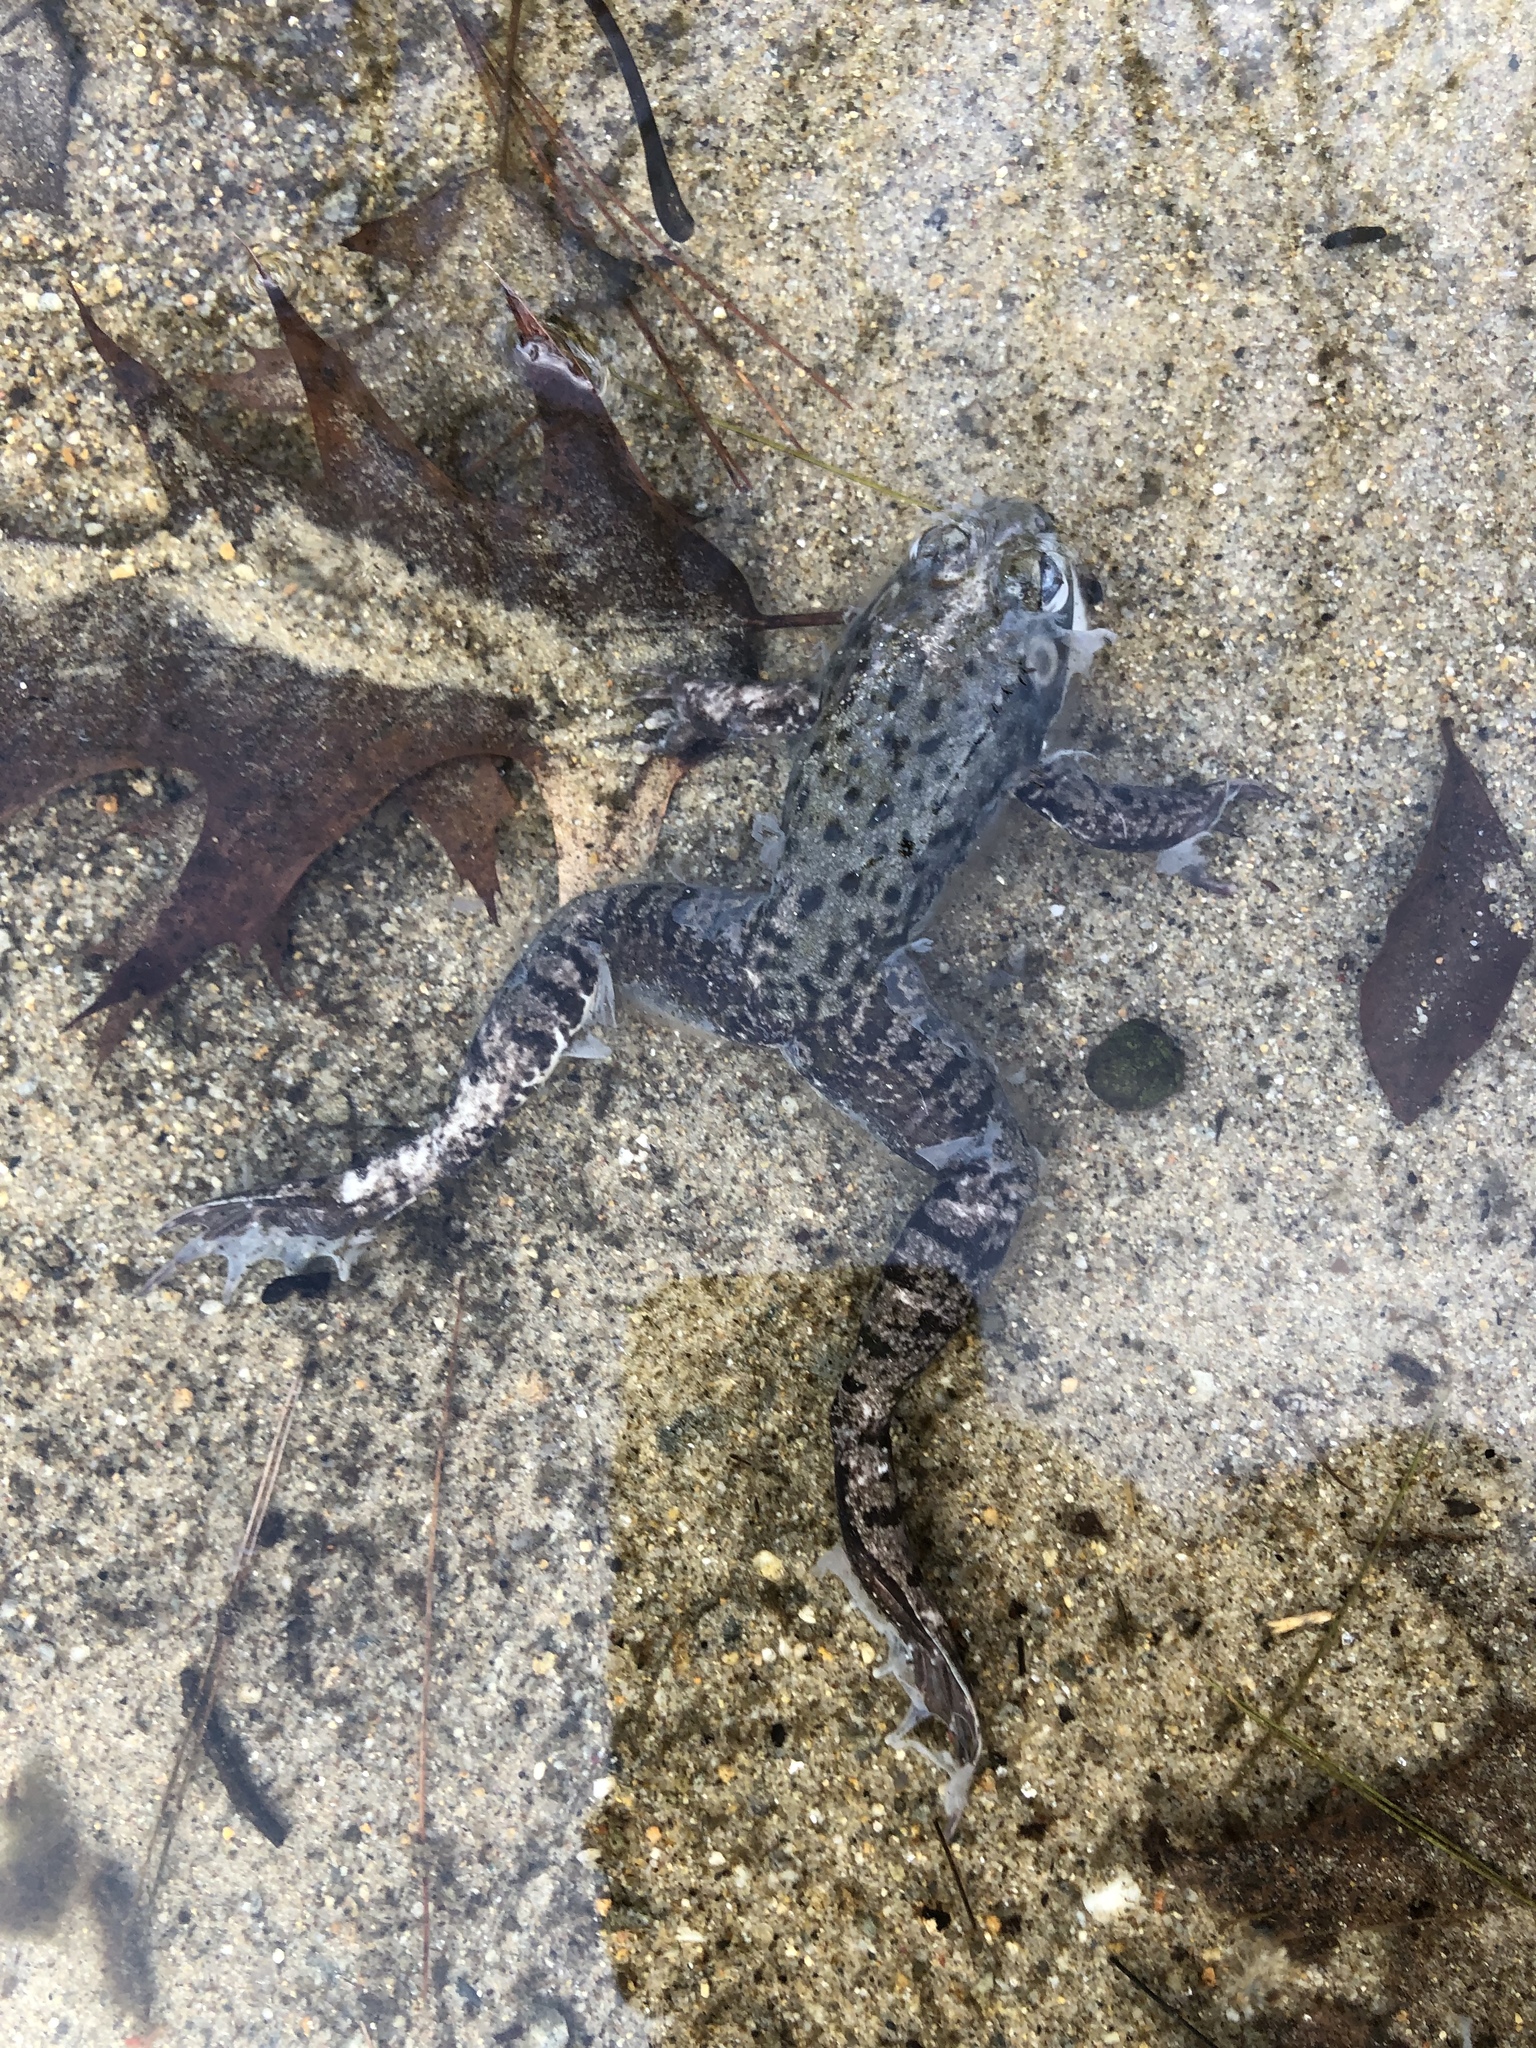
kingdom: Animalia
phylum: Chordata
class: Amphibia
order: Anura
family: Ranidae
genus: Lithobates
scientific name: Lithobates clamitans
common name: Green frog
